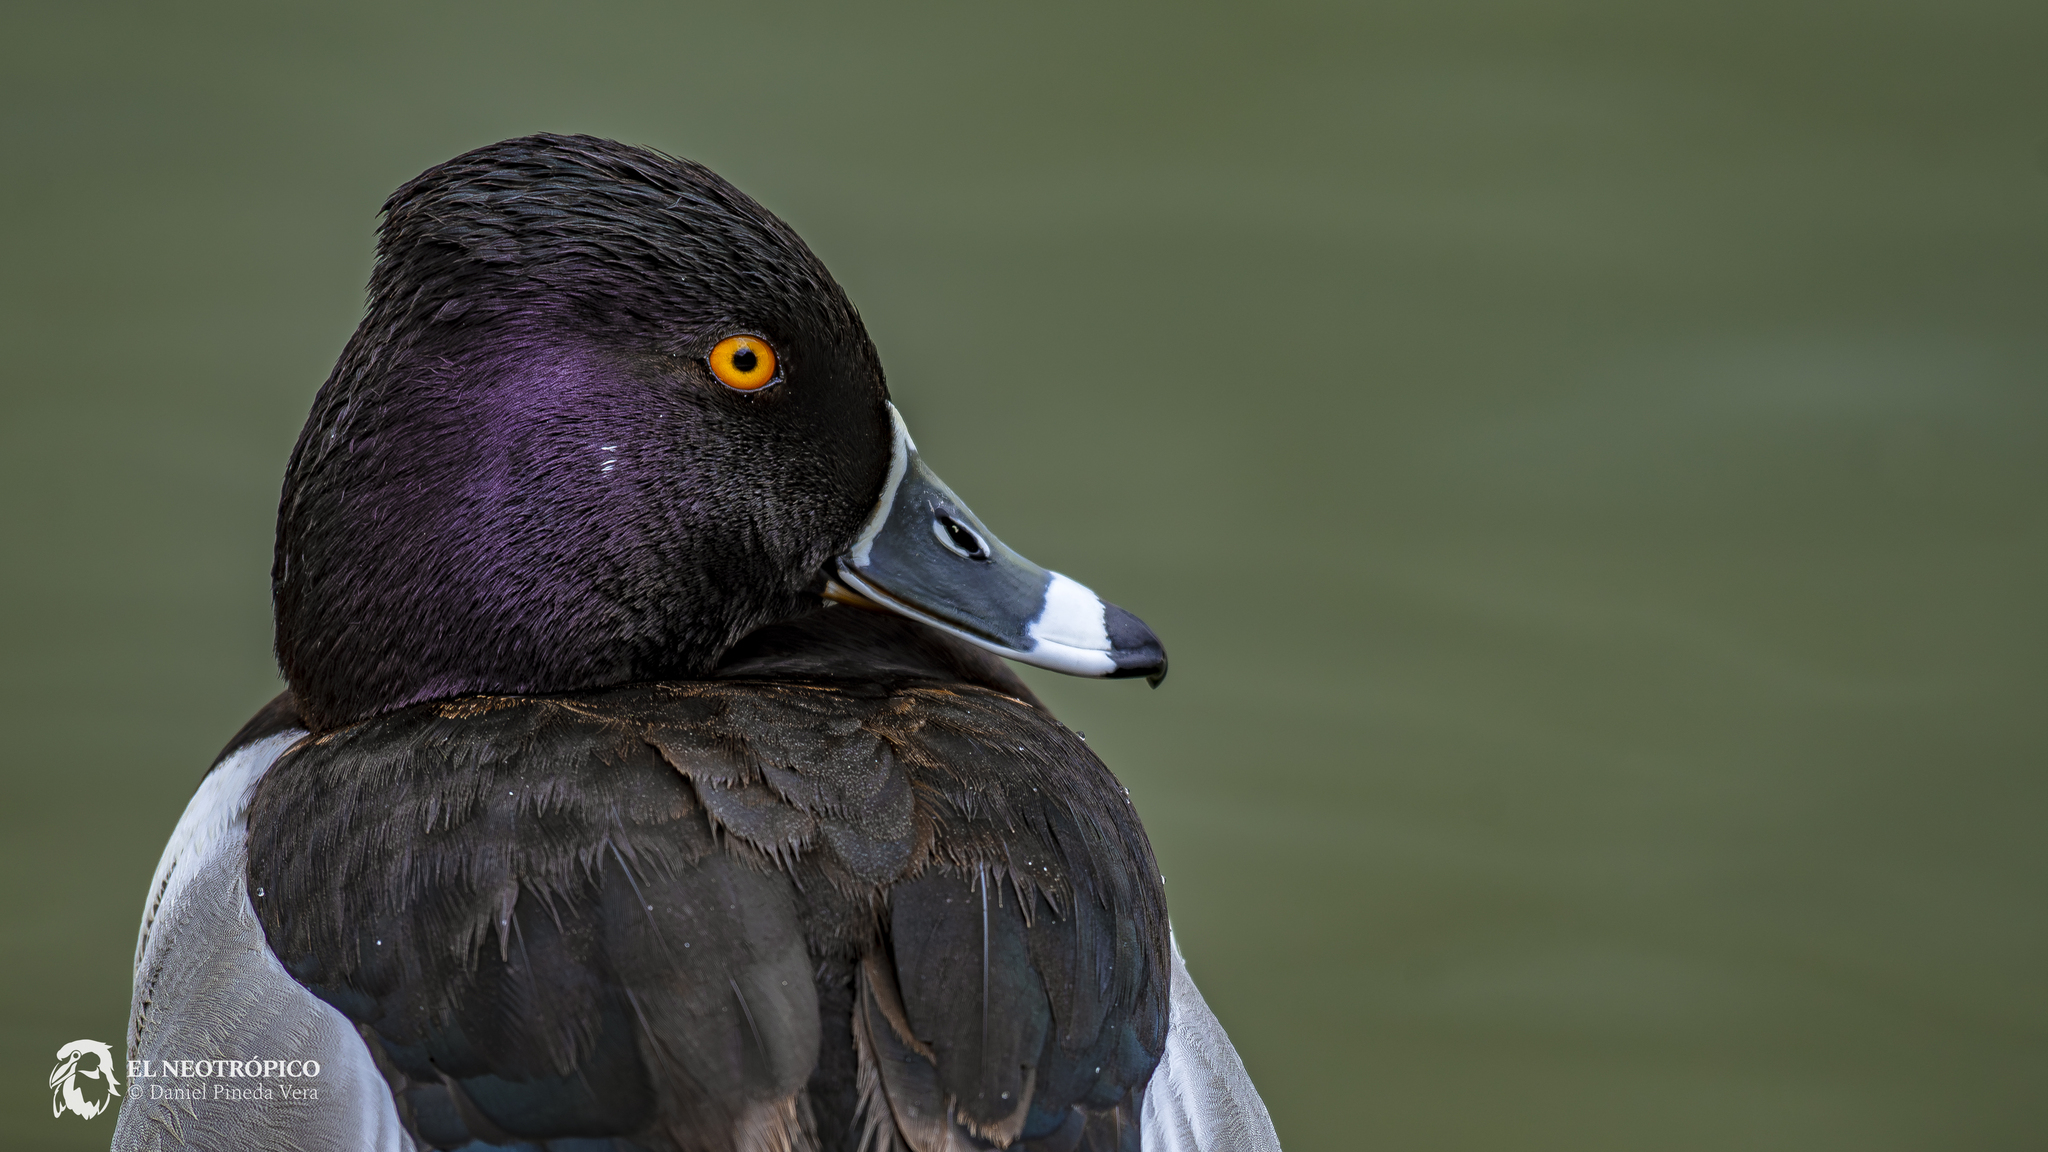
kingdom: Animalia
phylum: Chordata
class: Aves
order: Anseriformes
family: Anatidae
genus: Aythya
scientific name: Aythya collaris
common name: Ring-necked duck
